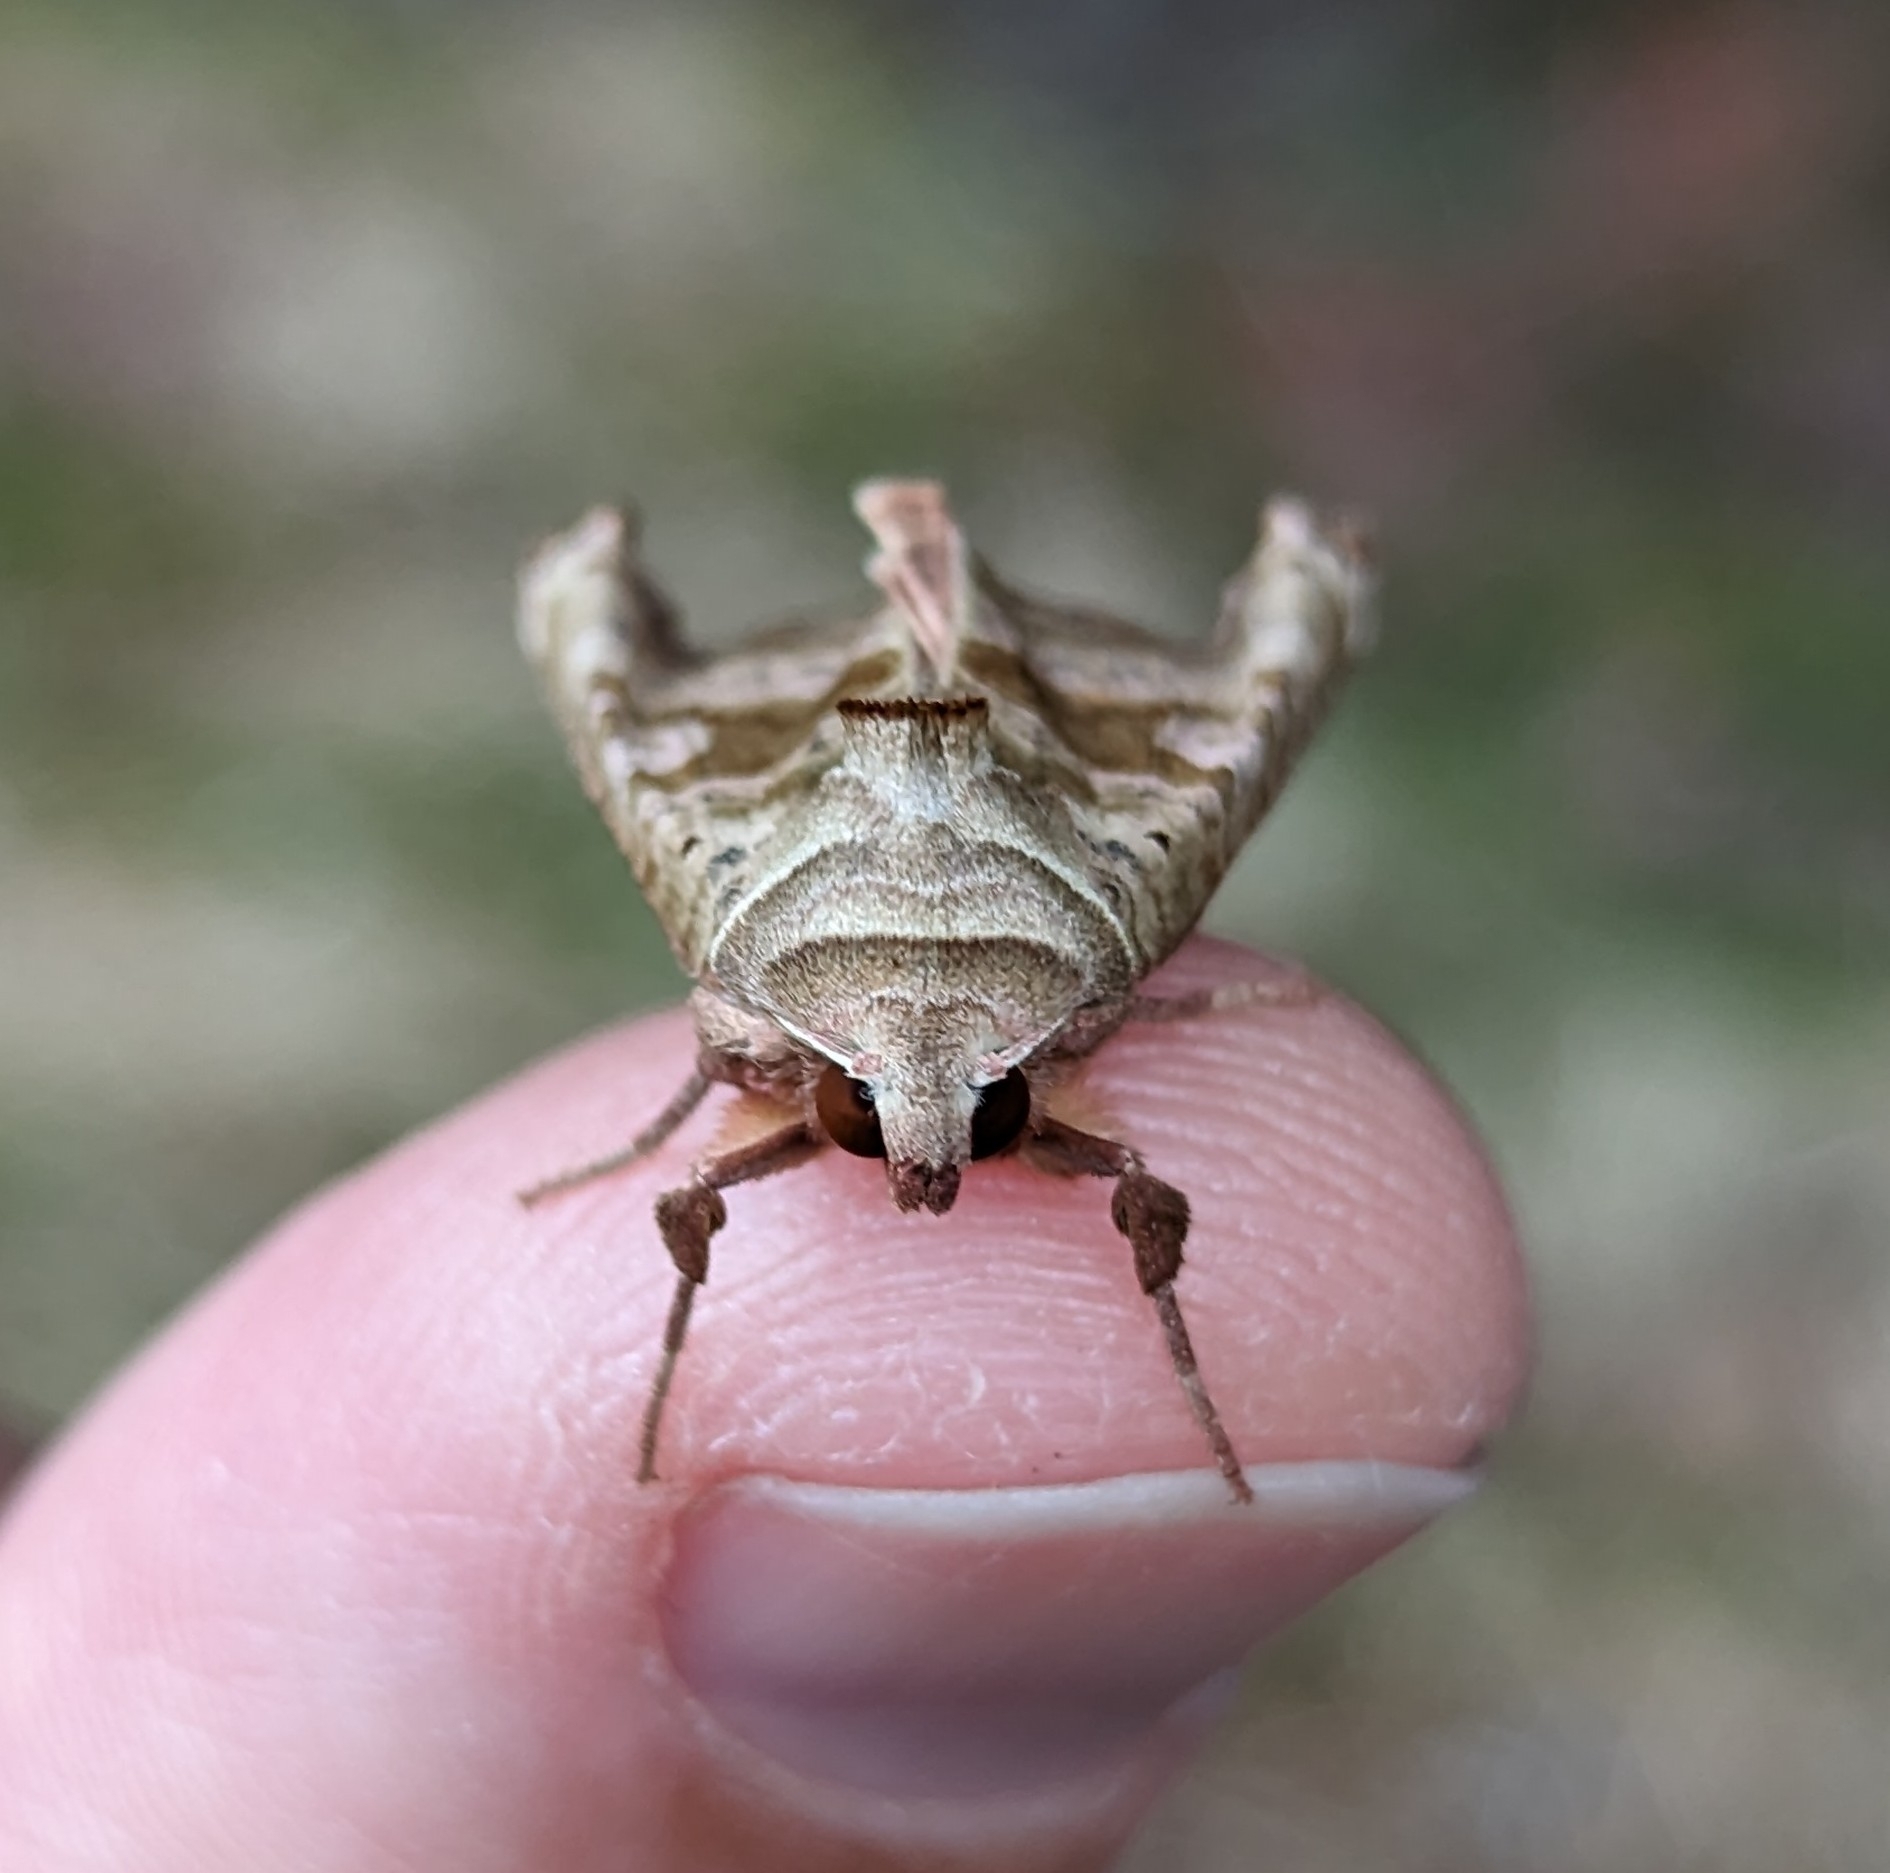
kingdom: Animalia
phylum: Arthropoda
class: Insecta
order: Lepidoptera
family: Noctuidae
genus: Phlogophora
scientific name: Phlogophora periculosa
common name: Brown angle shades
